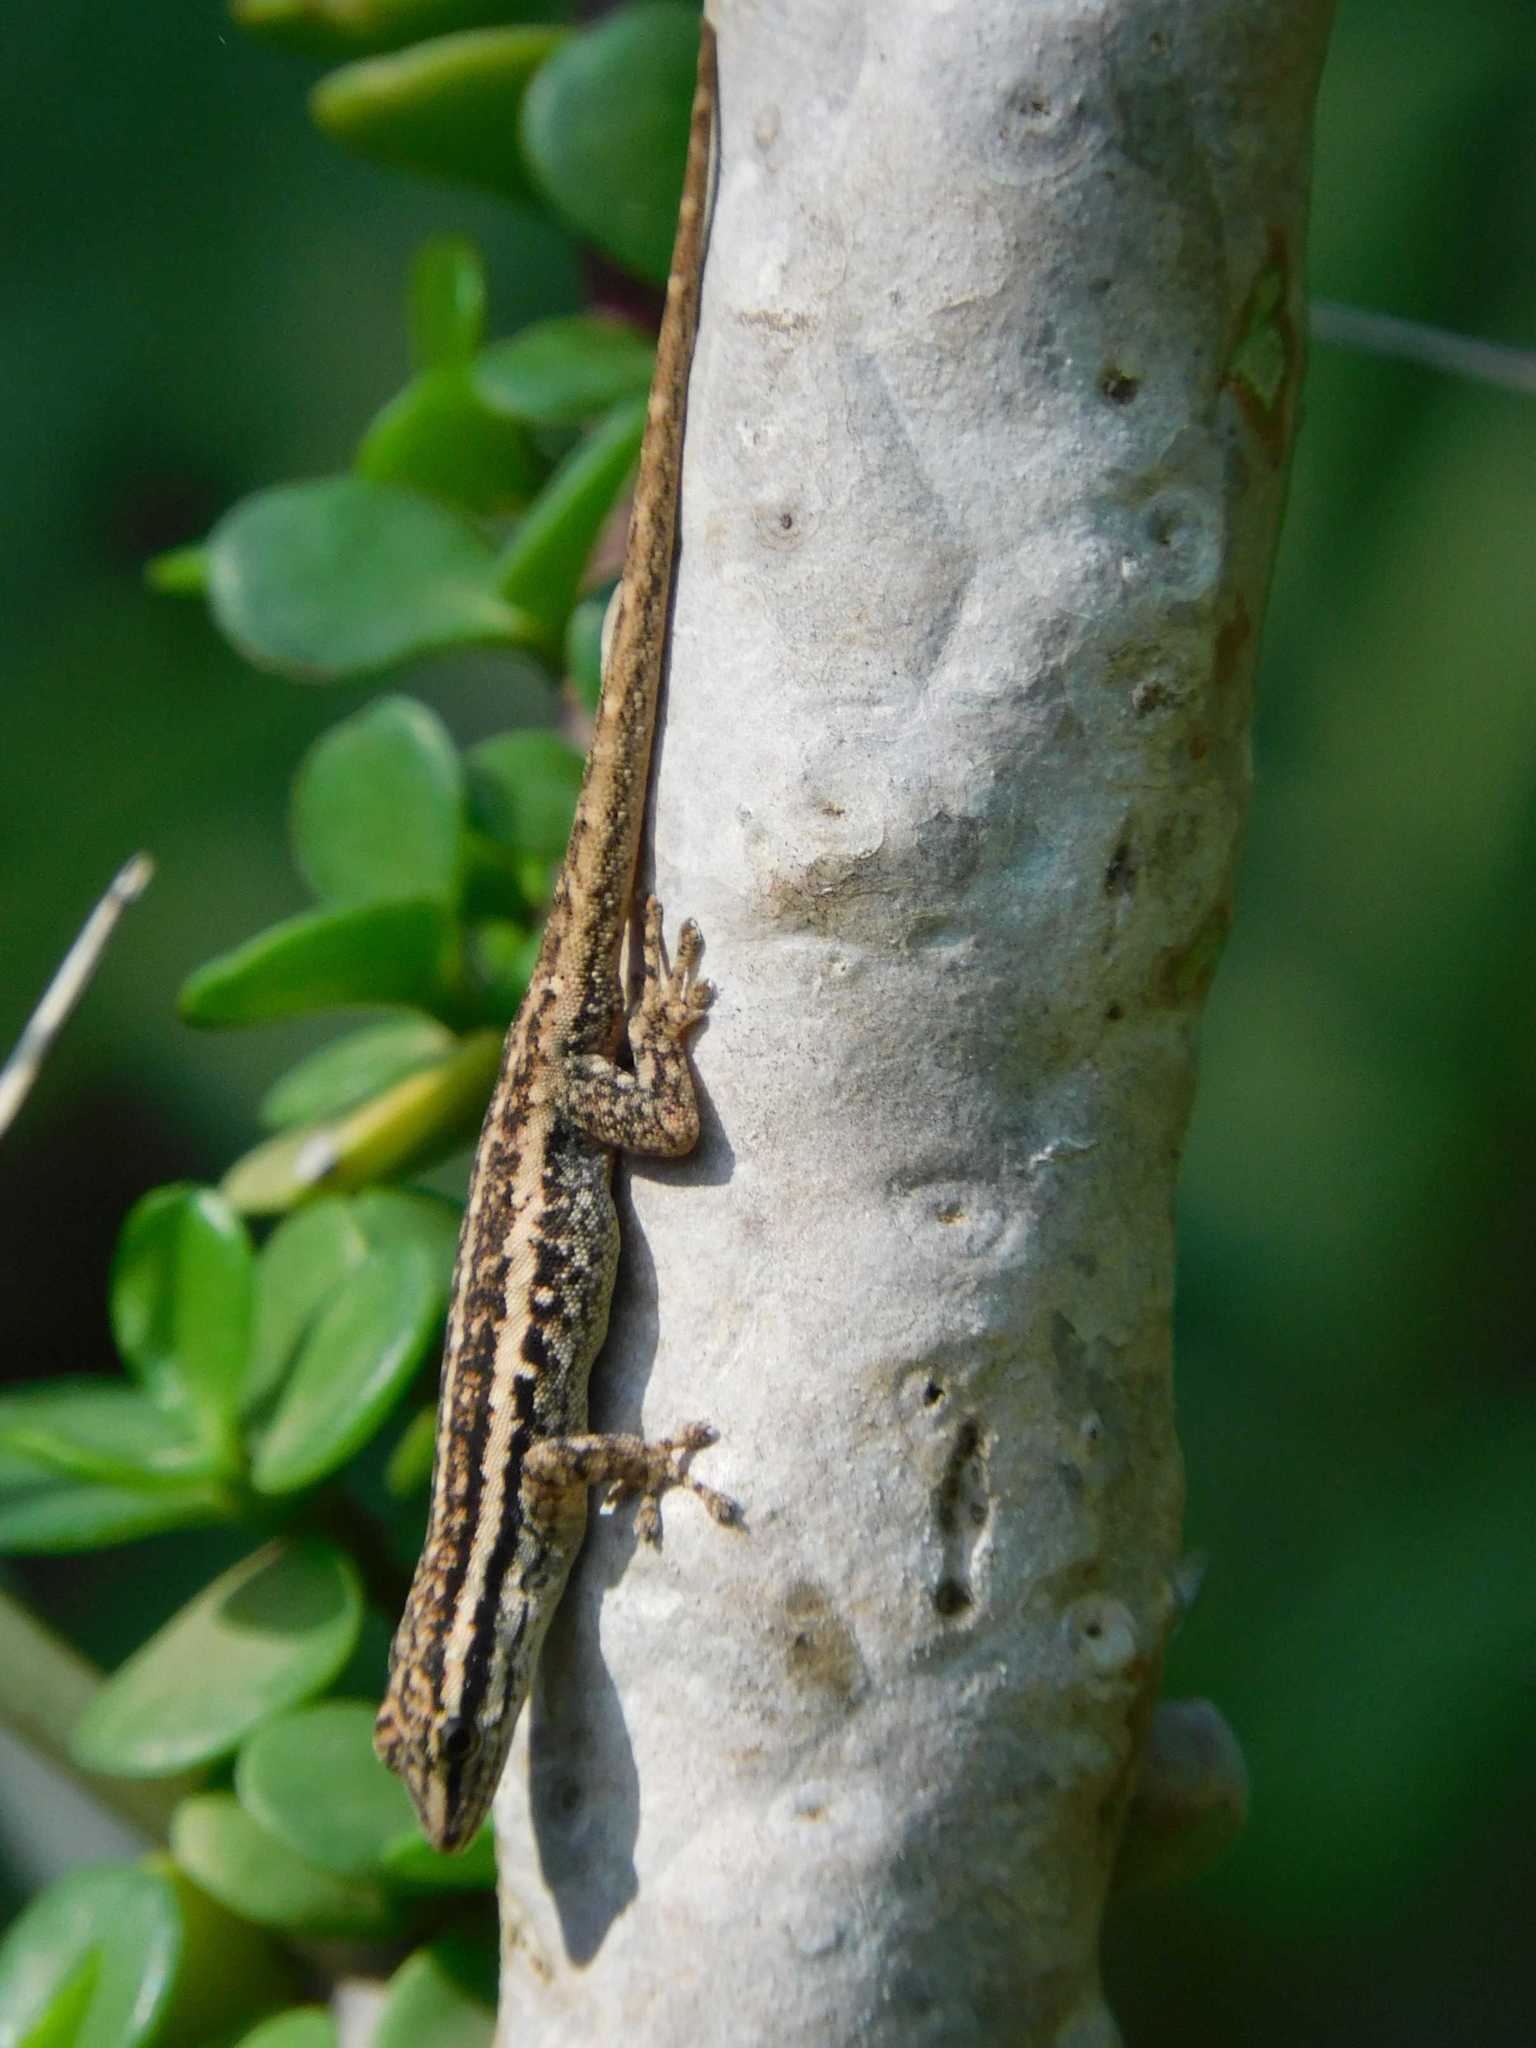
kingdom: Animalia
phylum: Chordata
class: Squamata
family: Gekkonidae
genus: Lygodactylus
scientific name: Lygodactylus capensis
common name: Cape dwarf gecko
